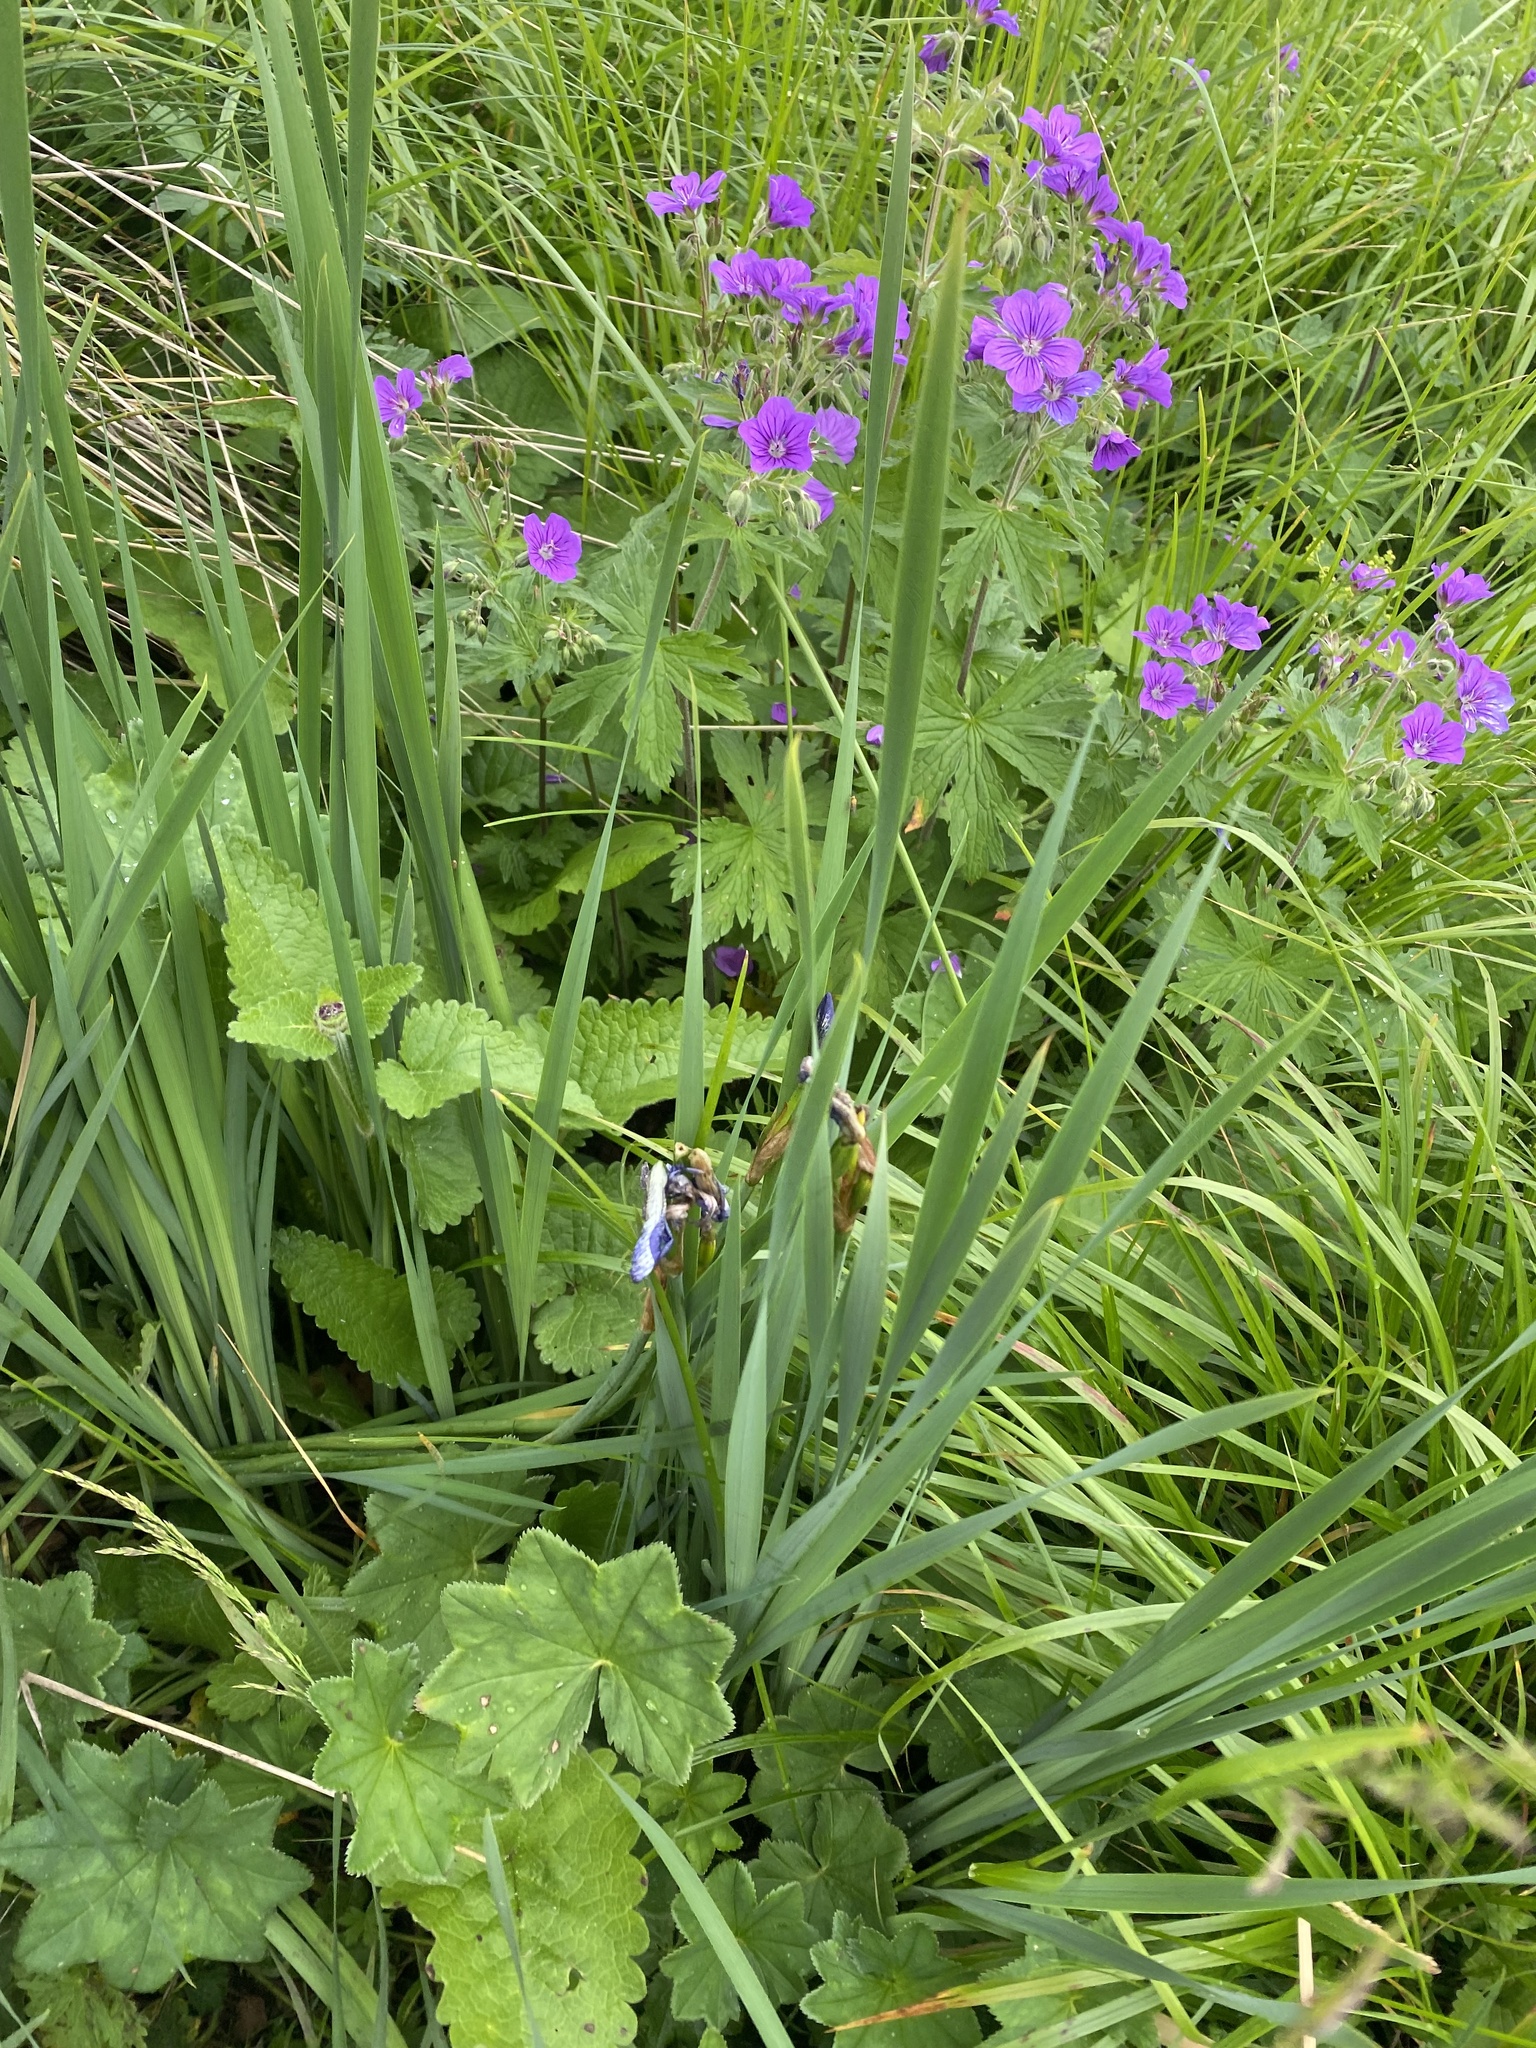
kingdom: Plantae
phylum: Tracheophyta
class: Liliopsida
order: Asparagales
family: Iridaceae
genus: Iris
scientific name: Iris sibirica
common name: Siberian iris
